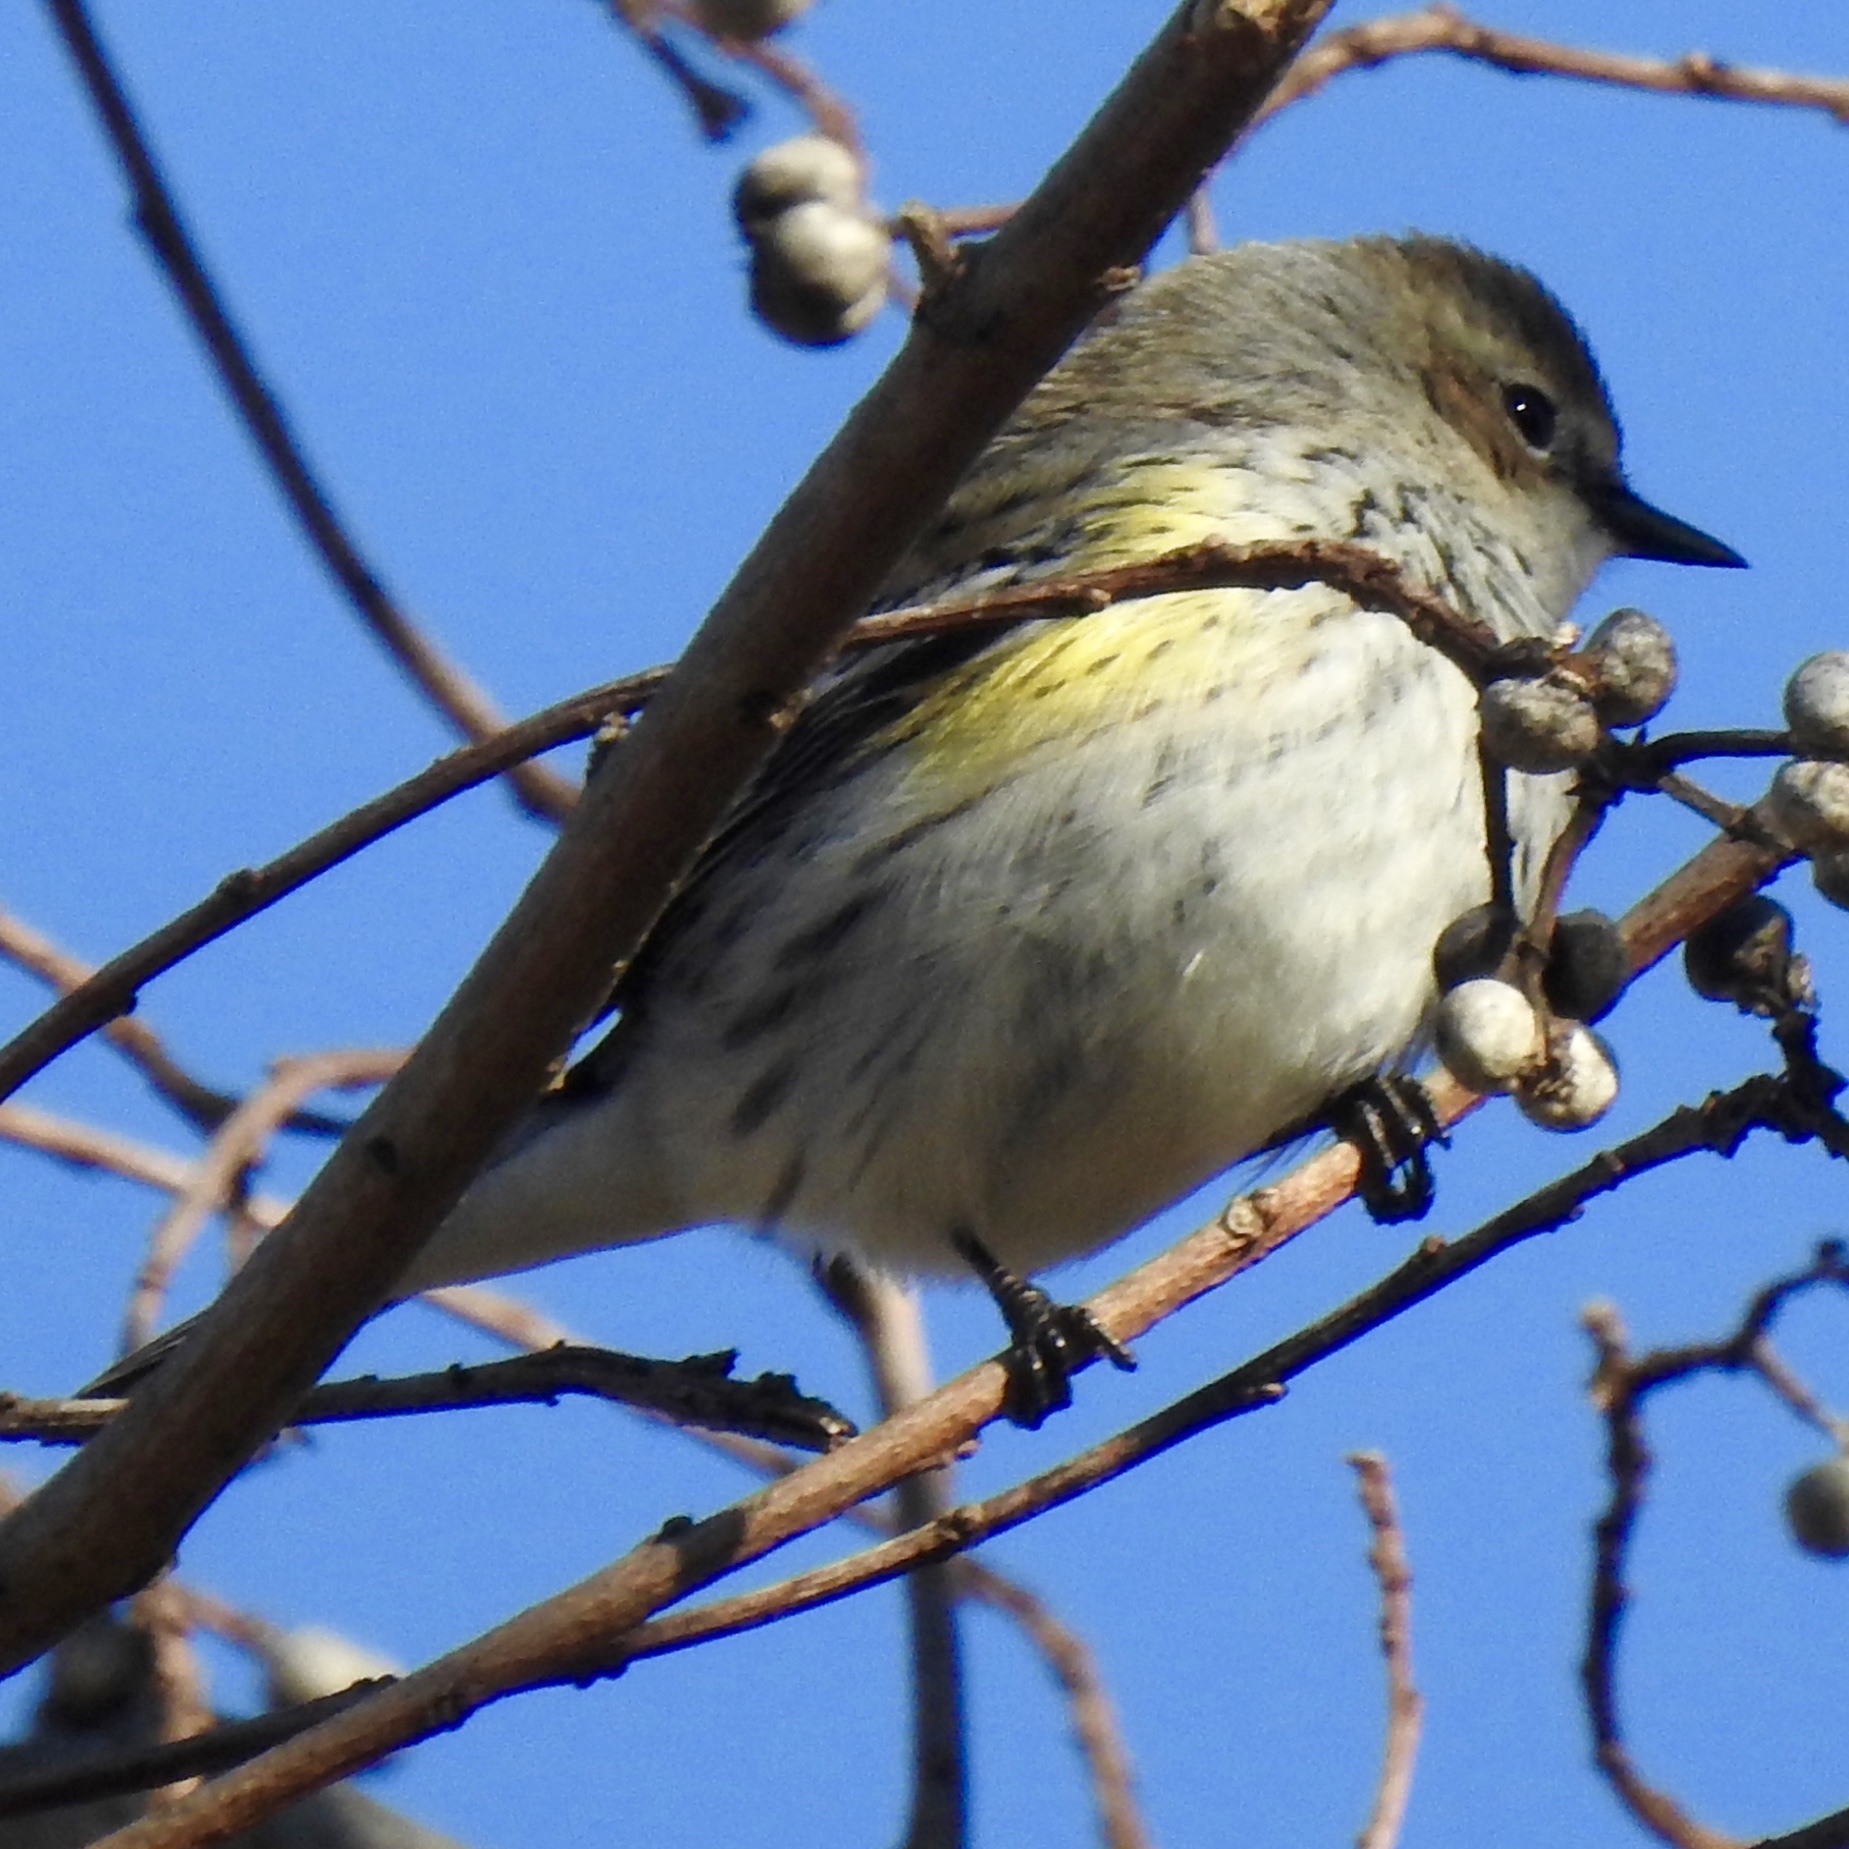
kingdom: Animalia
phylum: Chordata
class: Aves
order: Passeriformes
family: Parulidae
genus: Setophaga
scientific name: Setophaga coronata
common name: Myrtle warbler
